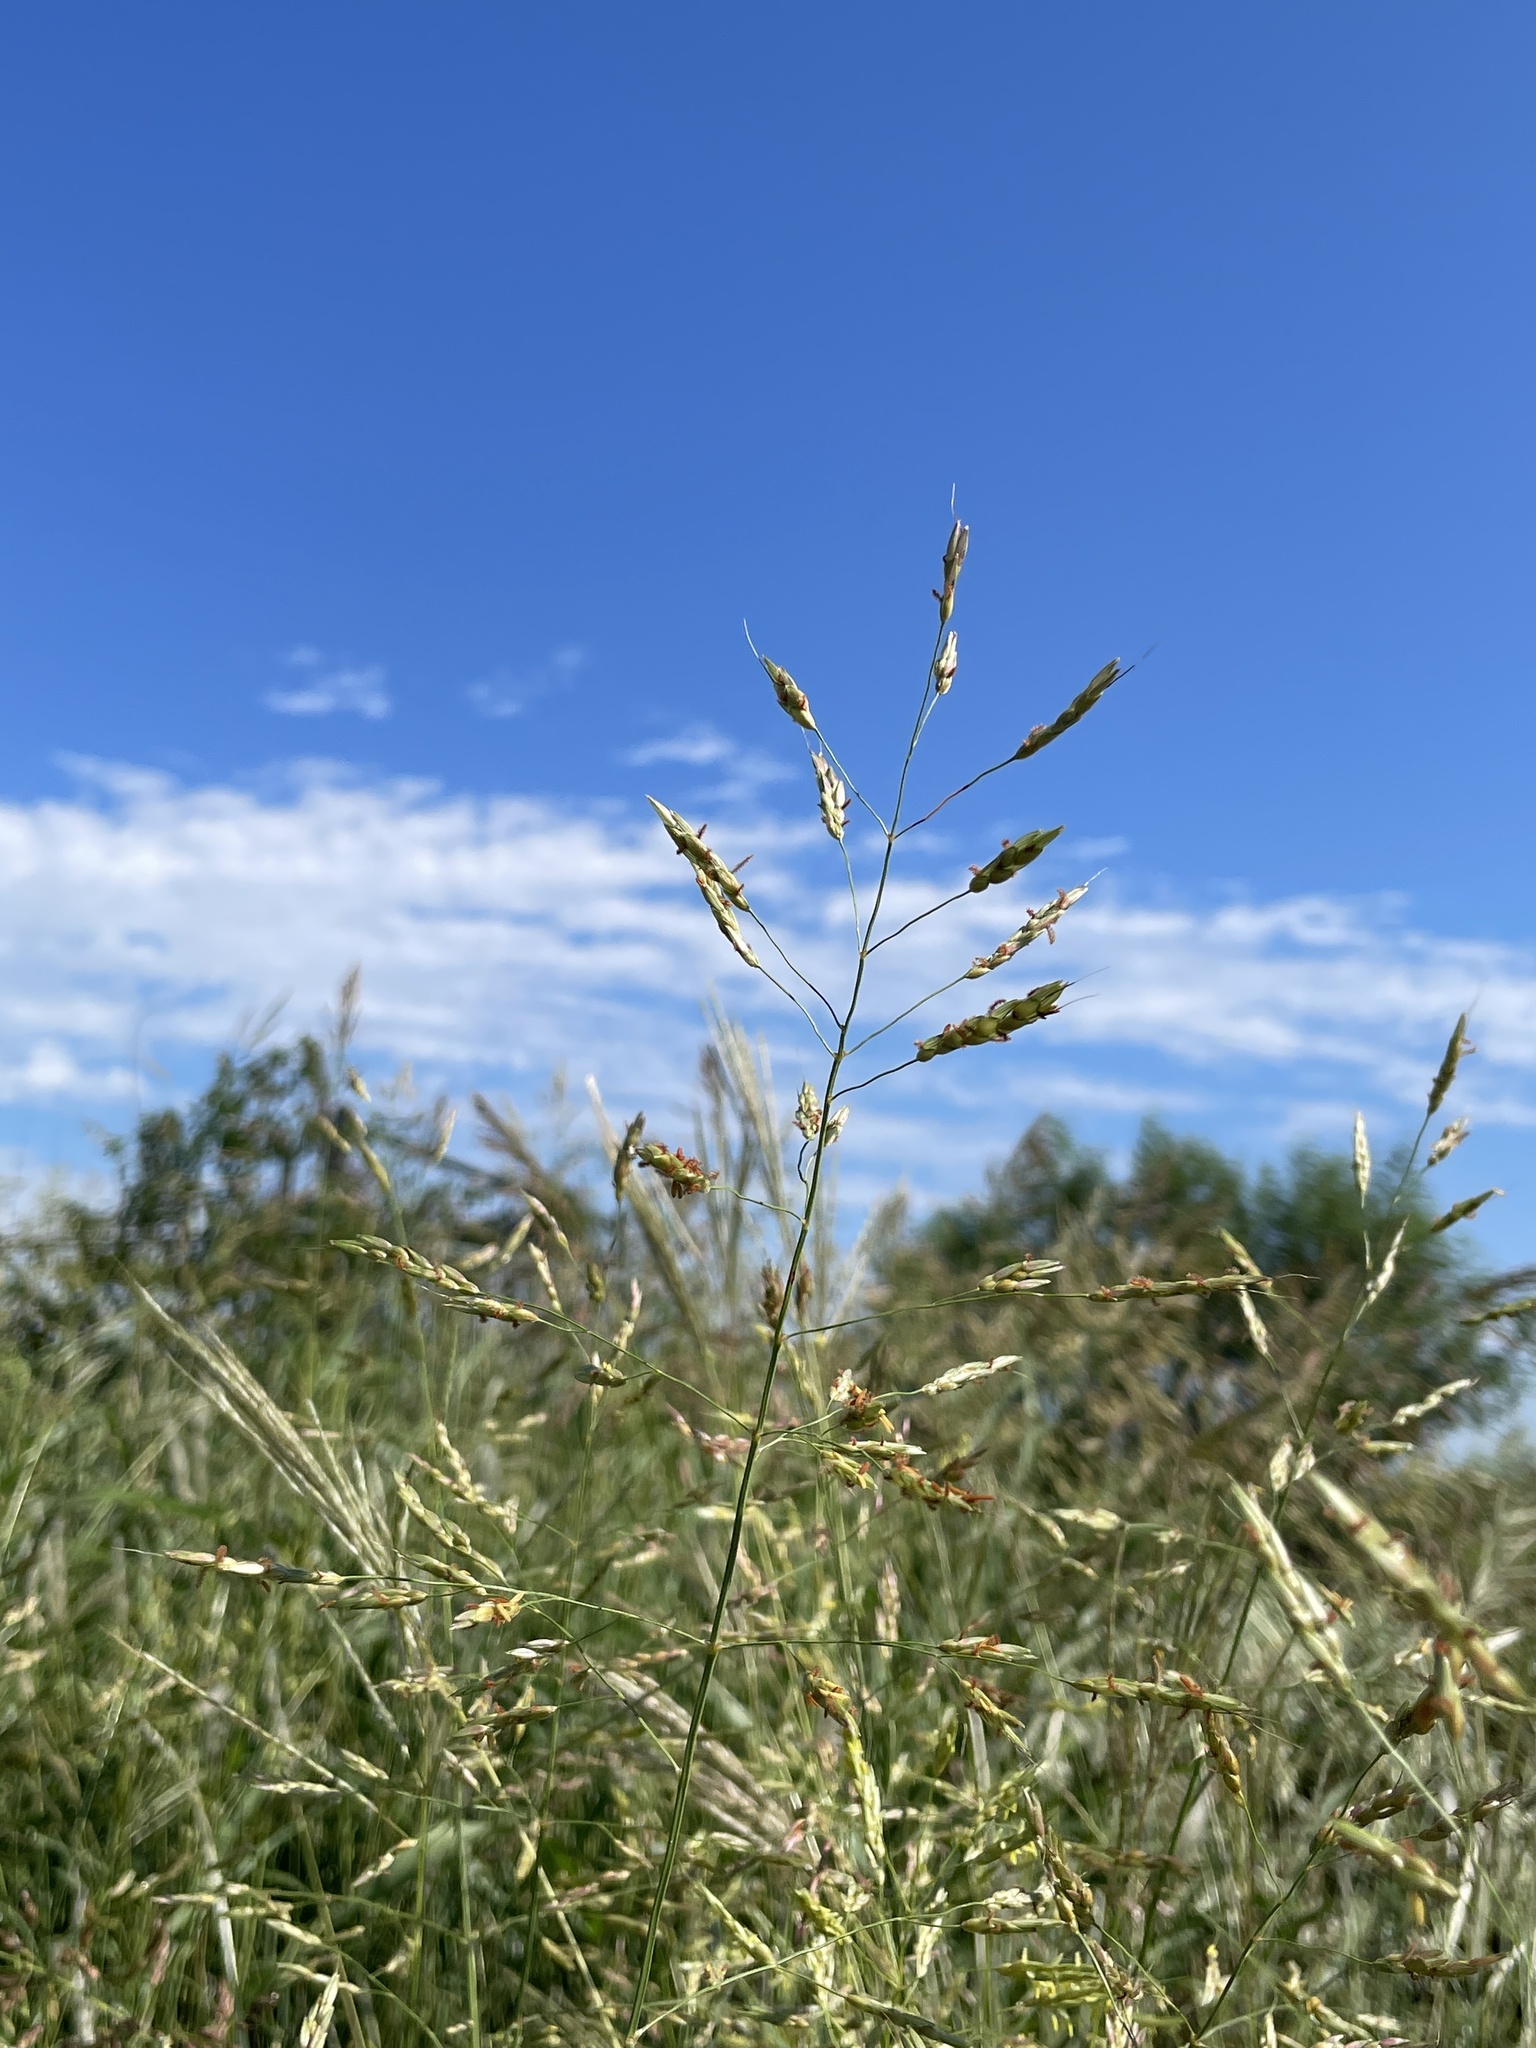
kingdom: Plantae
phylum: Tracheophyta
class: Liliopsida
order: Poales
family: Poaceae
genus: Sorghum
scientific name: Sorghum halepense
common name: Johnson-grass
